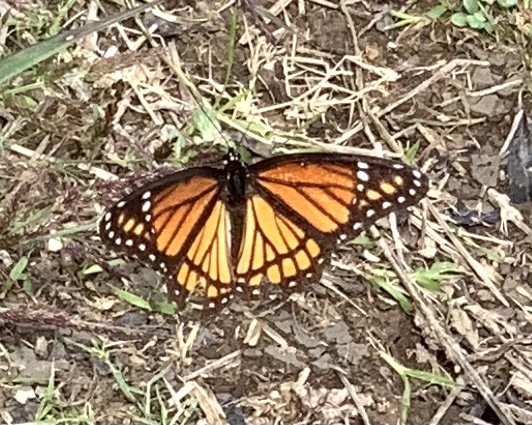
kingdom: Animalia
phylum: Arthropoda
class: Insecta
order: Lepidoptera
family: Nymphalidae
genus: Limenitis
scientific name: Limenitis archippus
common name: Viceroy
